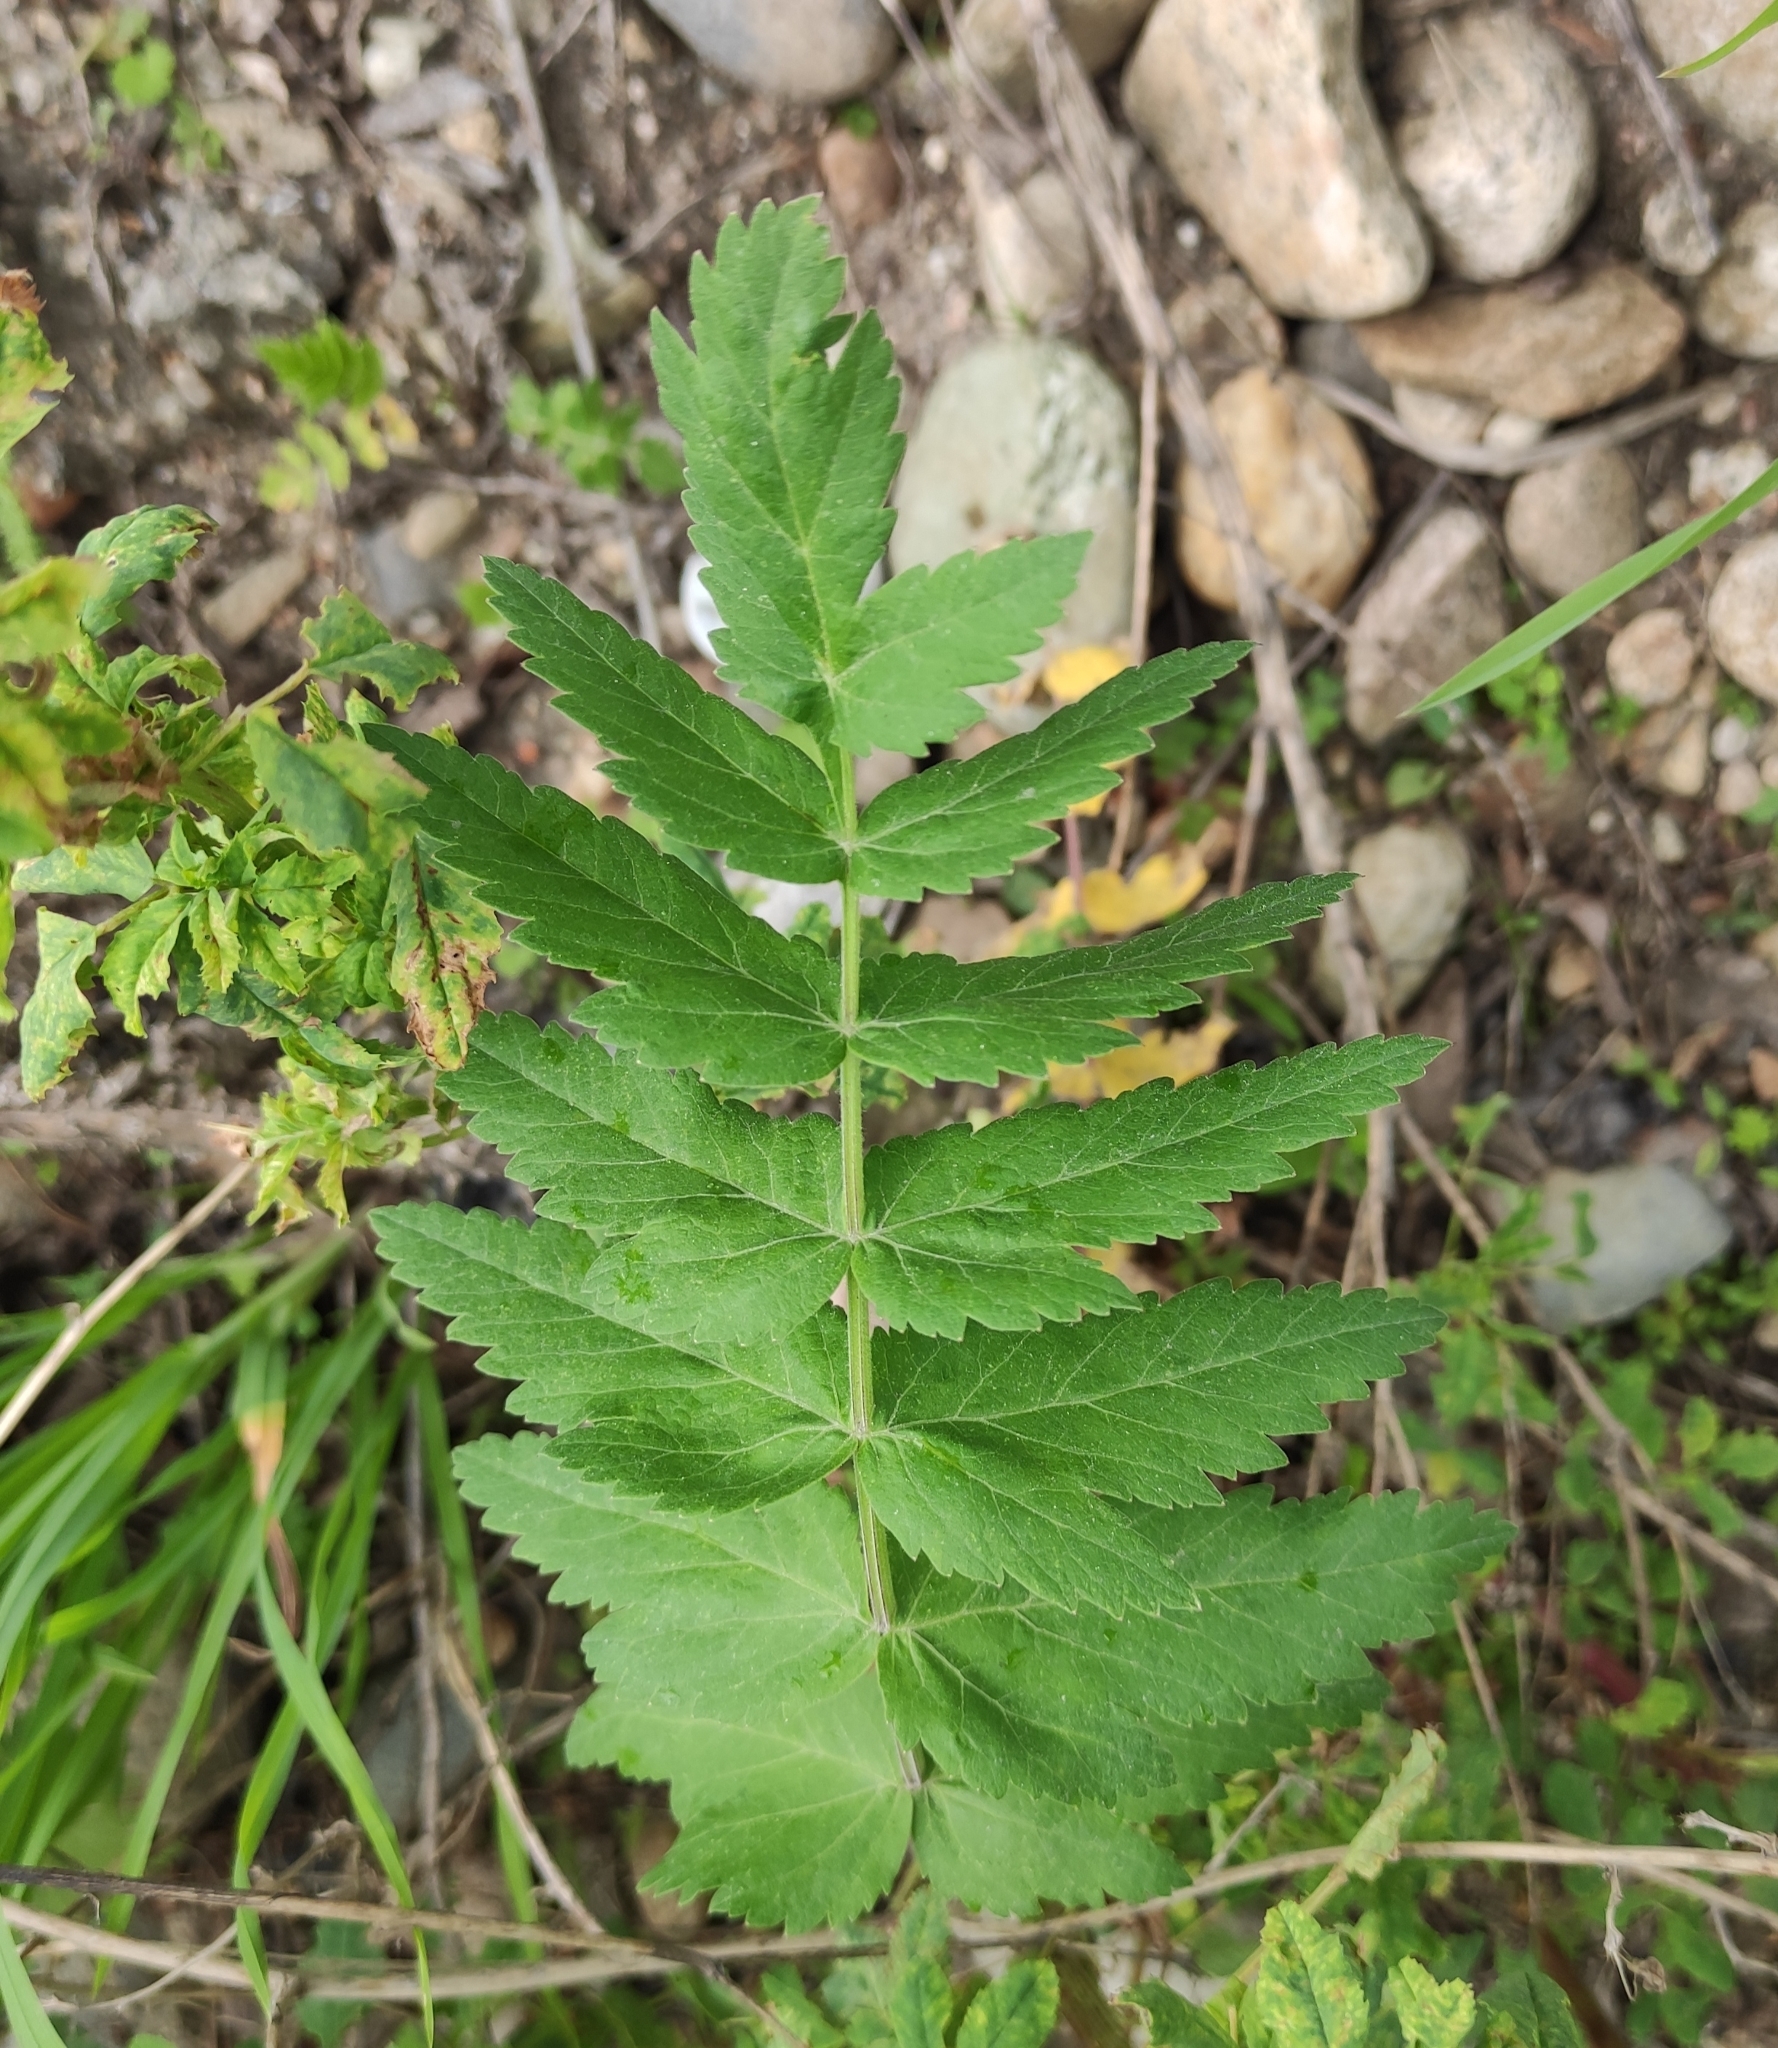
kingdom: Plantae
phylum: Tracheophyta
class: Magnoliopsida
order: Apiales
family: Apiaceae
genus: Pastinaca
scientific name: Pastinaca sativa
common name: Wild parsnip
